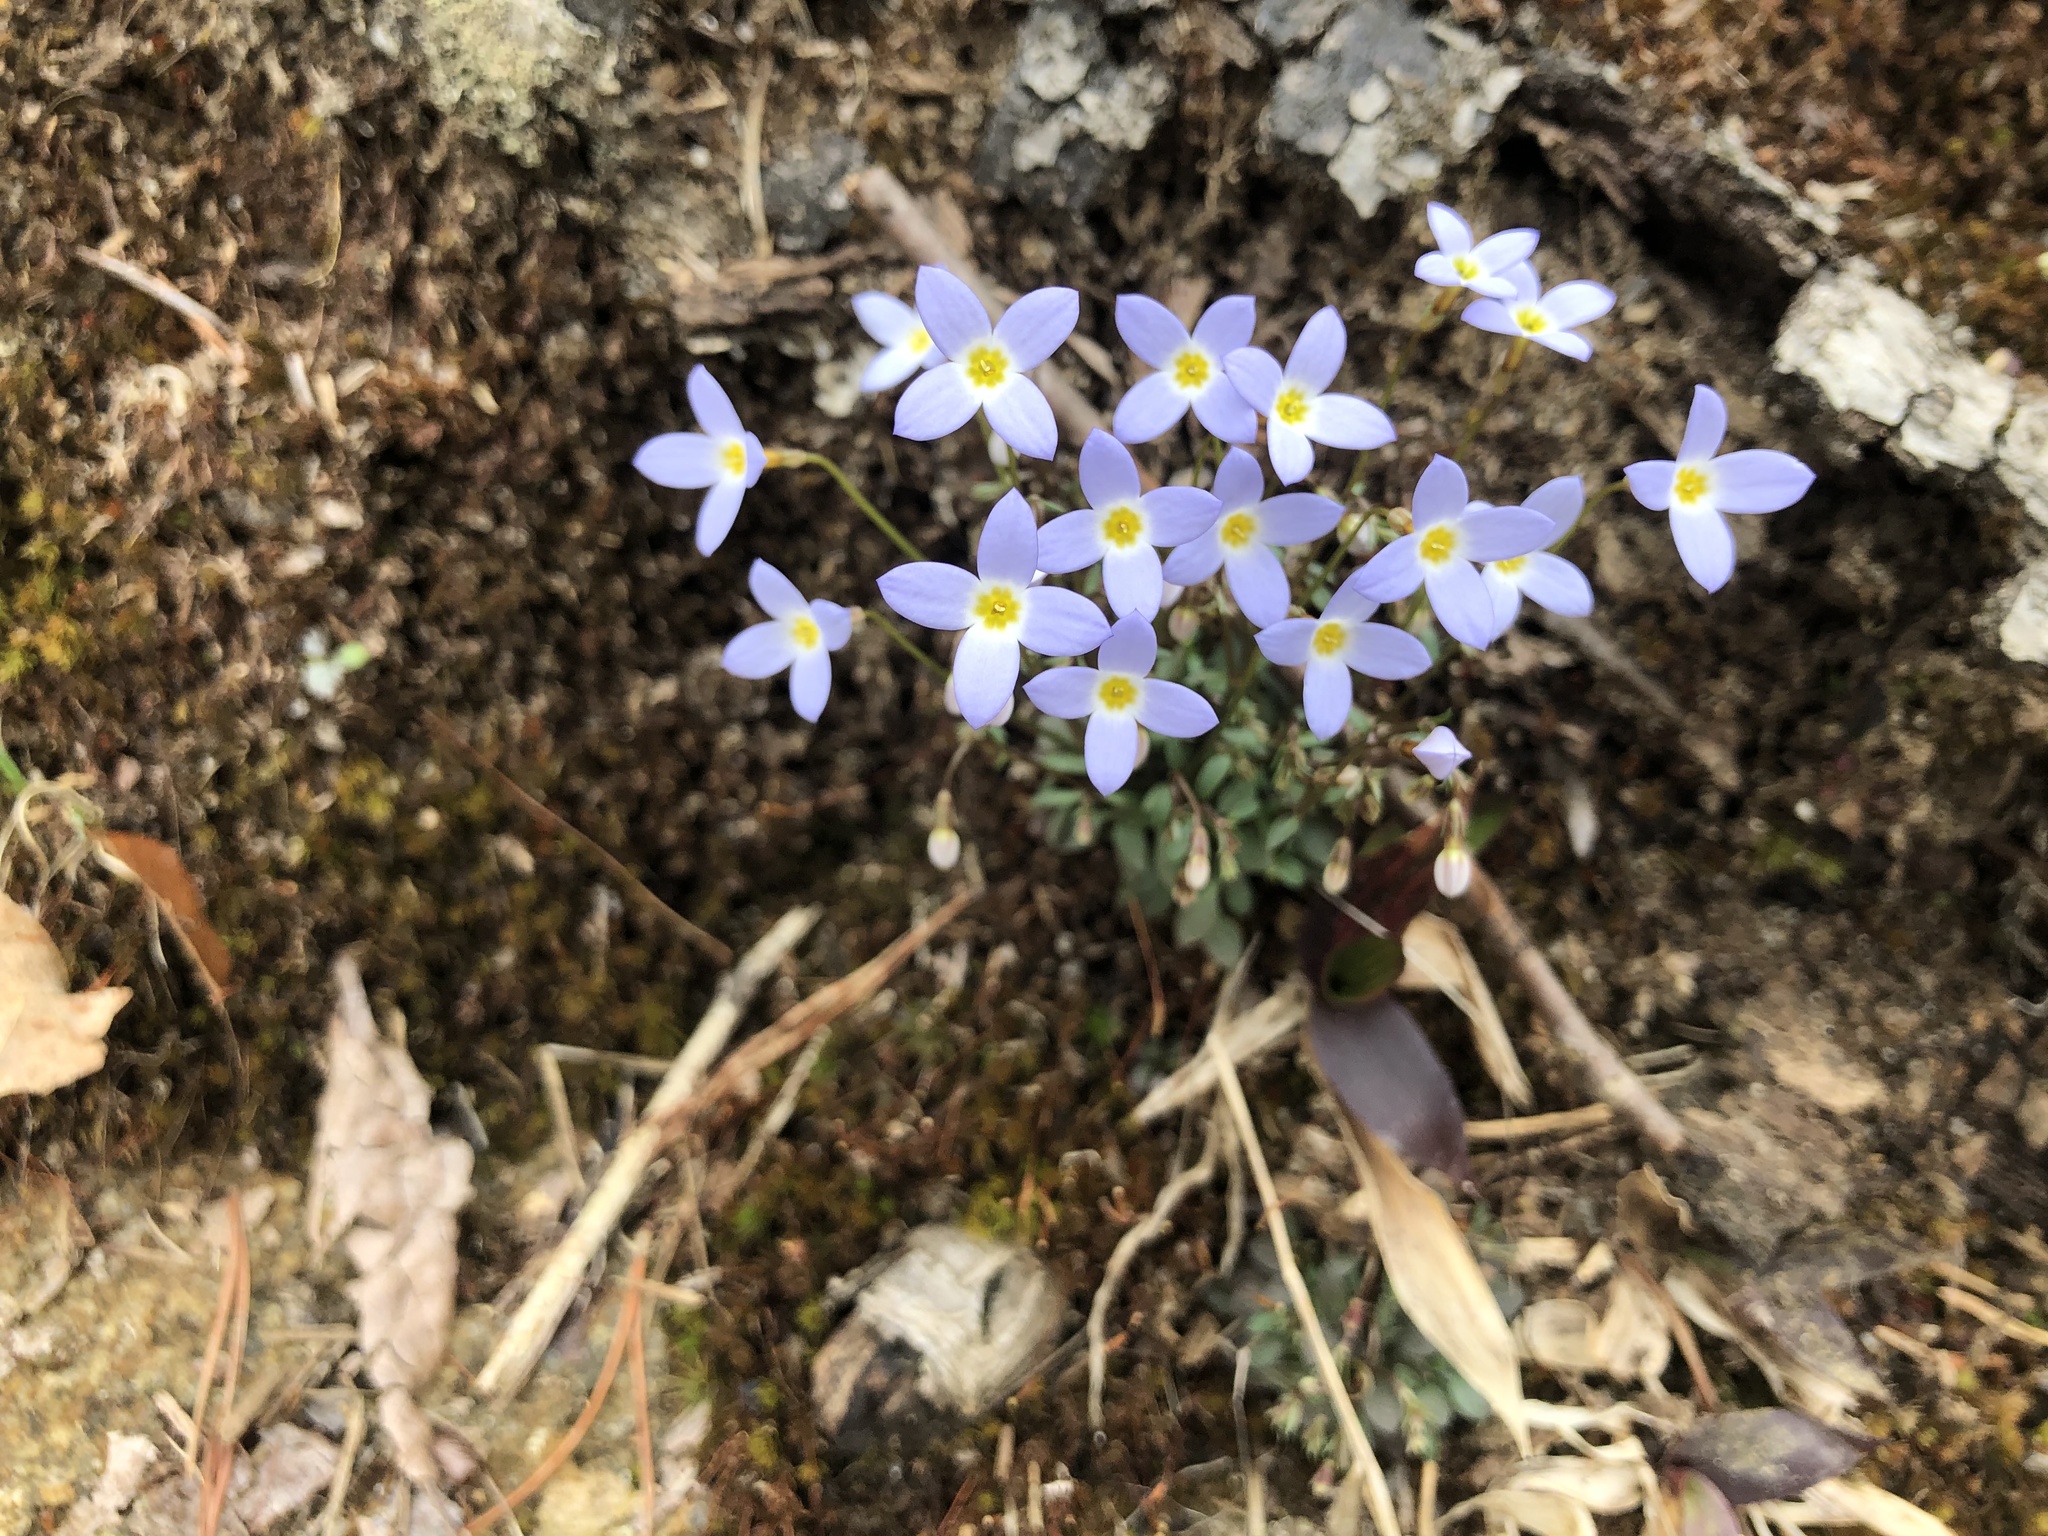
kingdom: Plantae
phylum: Tracheophyta
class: Magnoliopsida
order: Gentianales
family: Rubiaceae
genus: Houstonia
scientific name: Houstonia serpyllifolia
